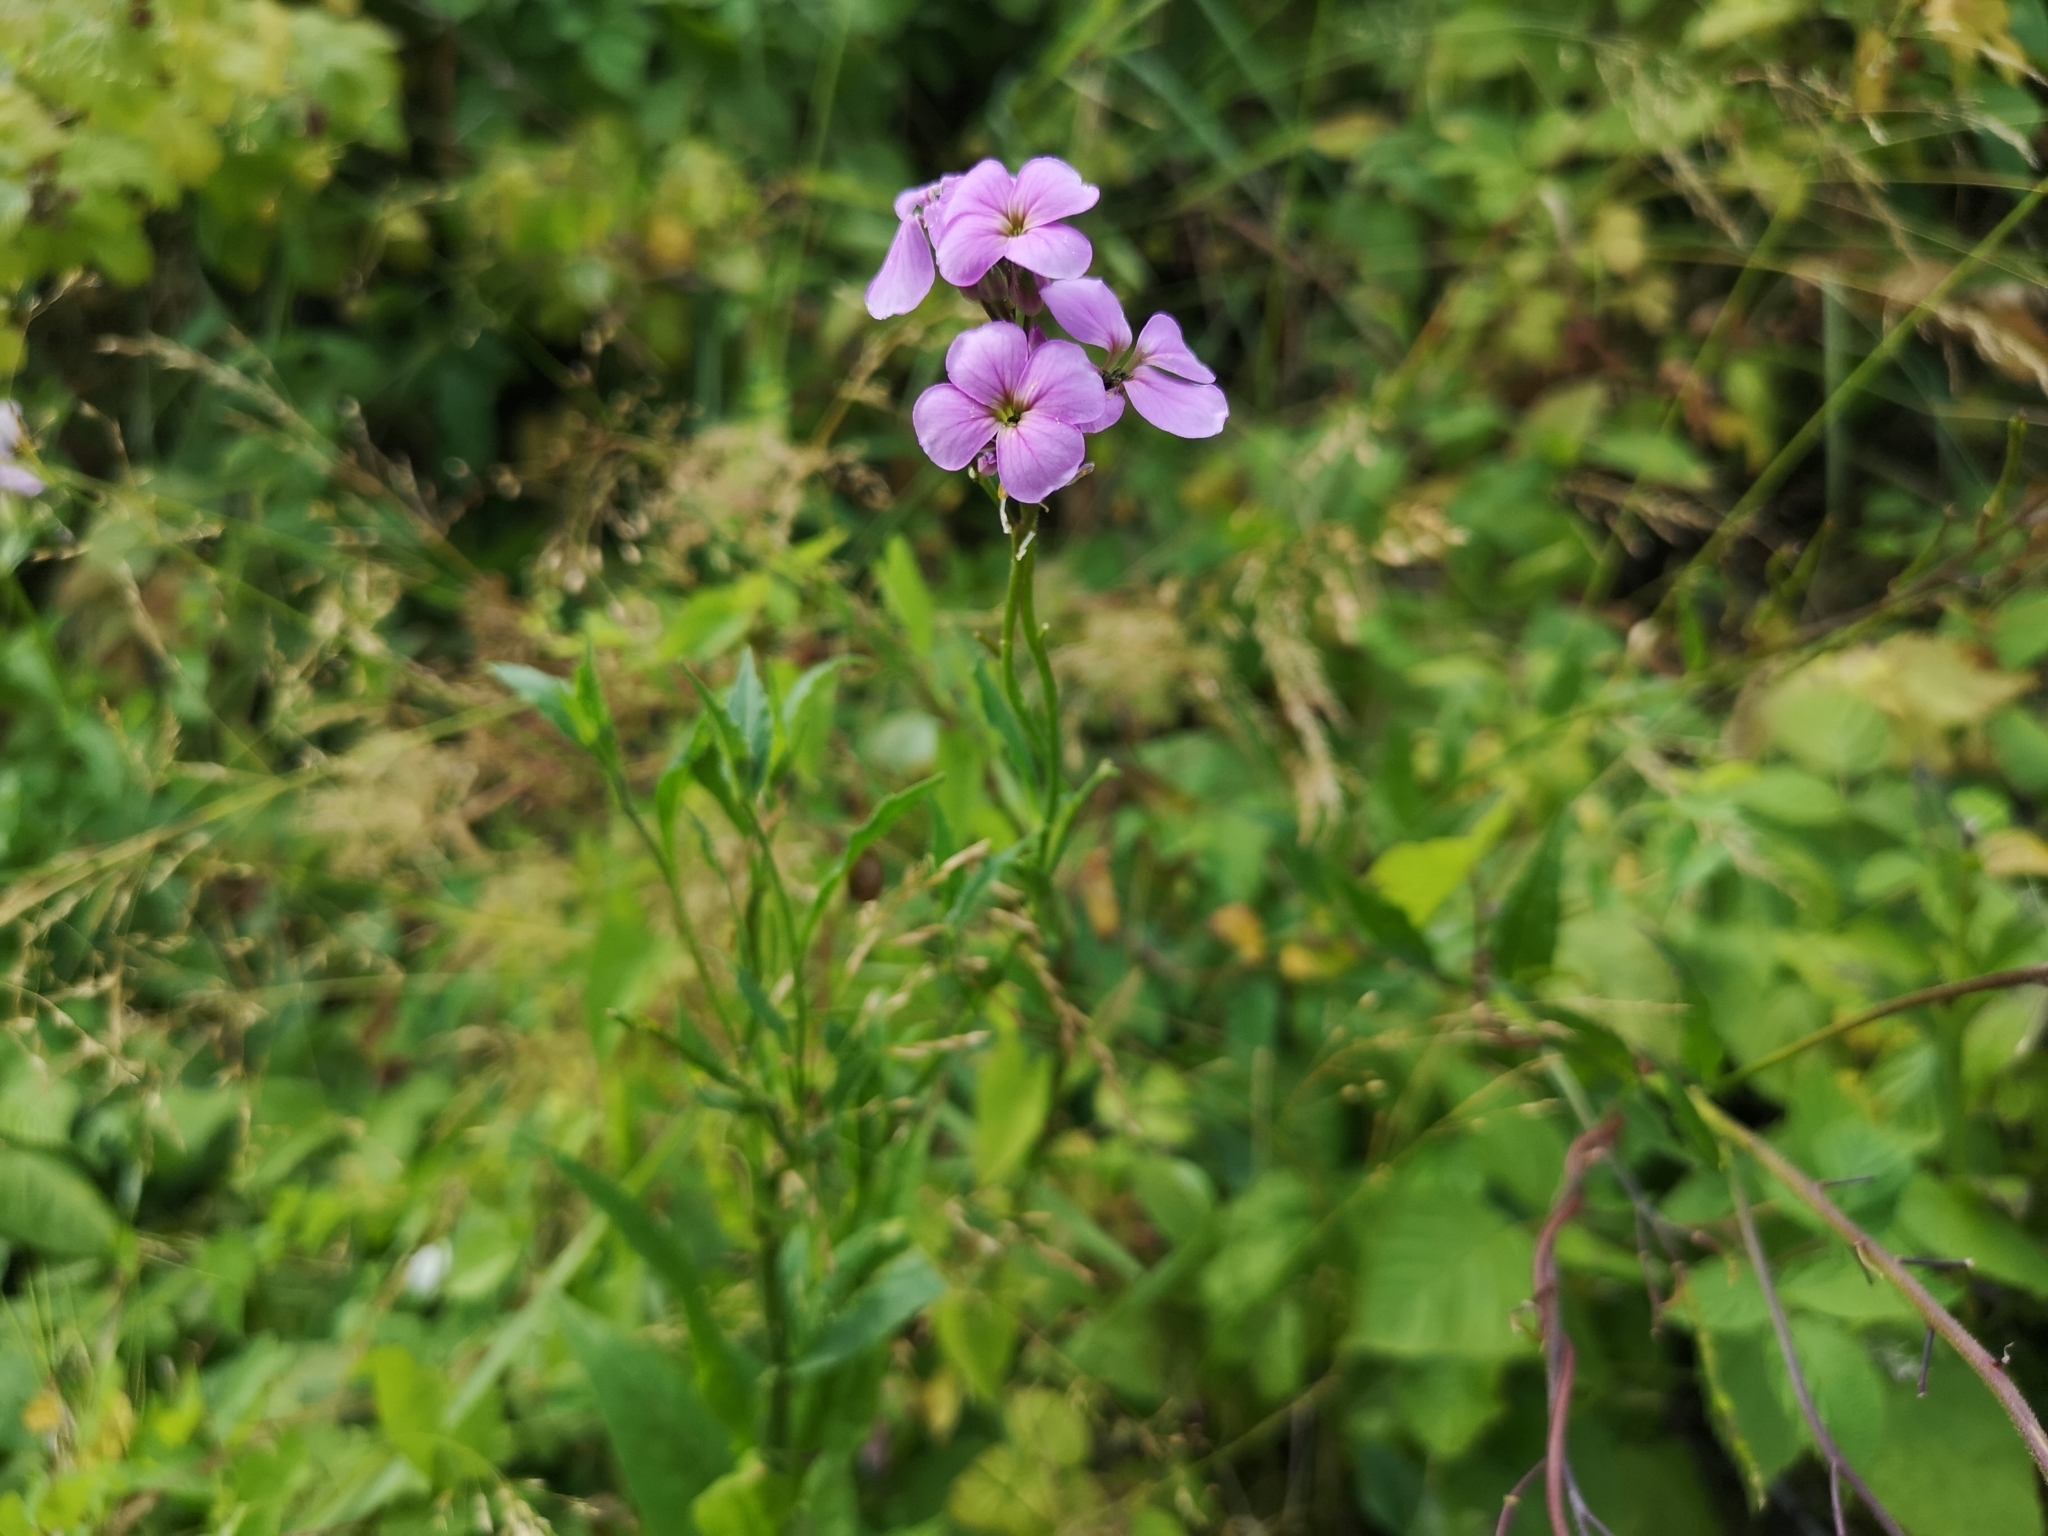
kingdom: Plantae
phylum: Tracheophyta
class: Magnoliopsida
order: Brassicales
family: Brassicaceae
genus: Hesperis
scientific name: Hesperis matronalis
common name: Dame's-violet
